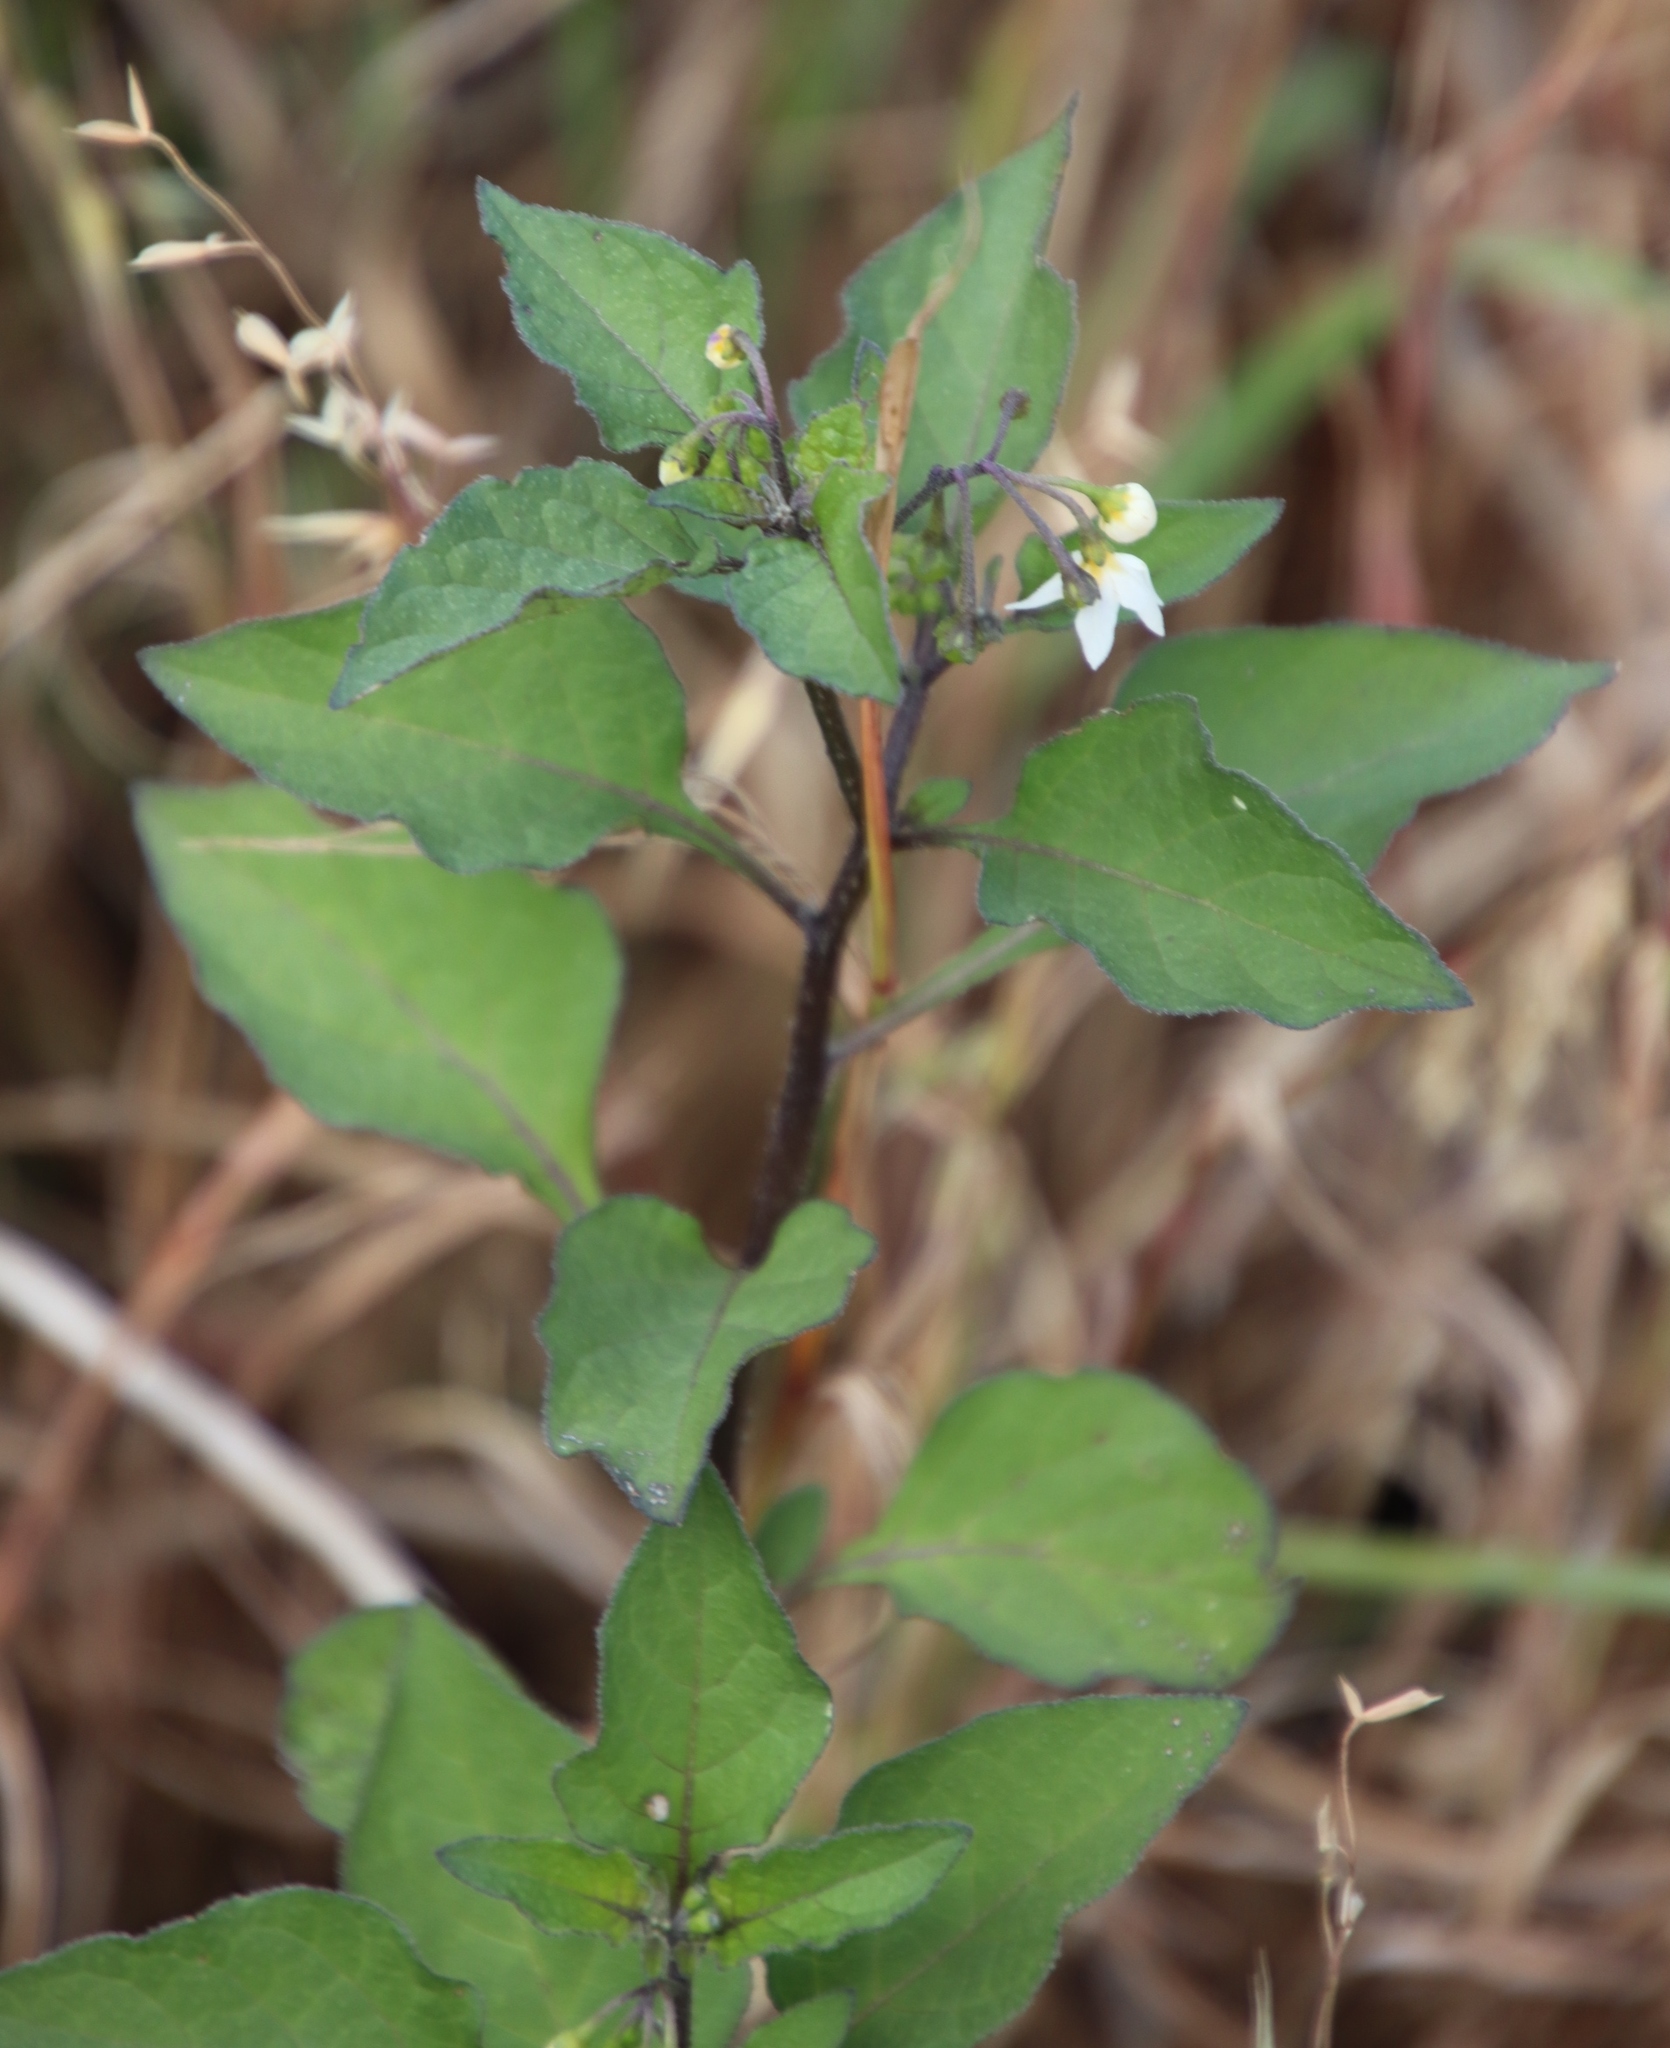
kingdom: Plantae
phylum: Tracheophyta
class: Magnoliopsida
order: Solanales
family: Solanaceae
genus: Solanum
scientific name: Solanum nigrum
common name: Black nightshade
